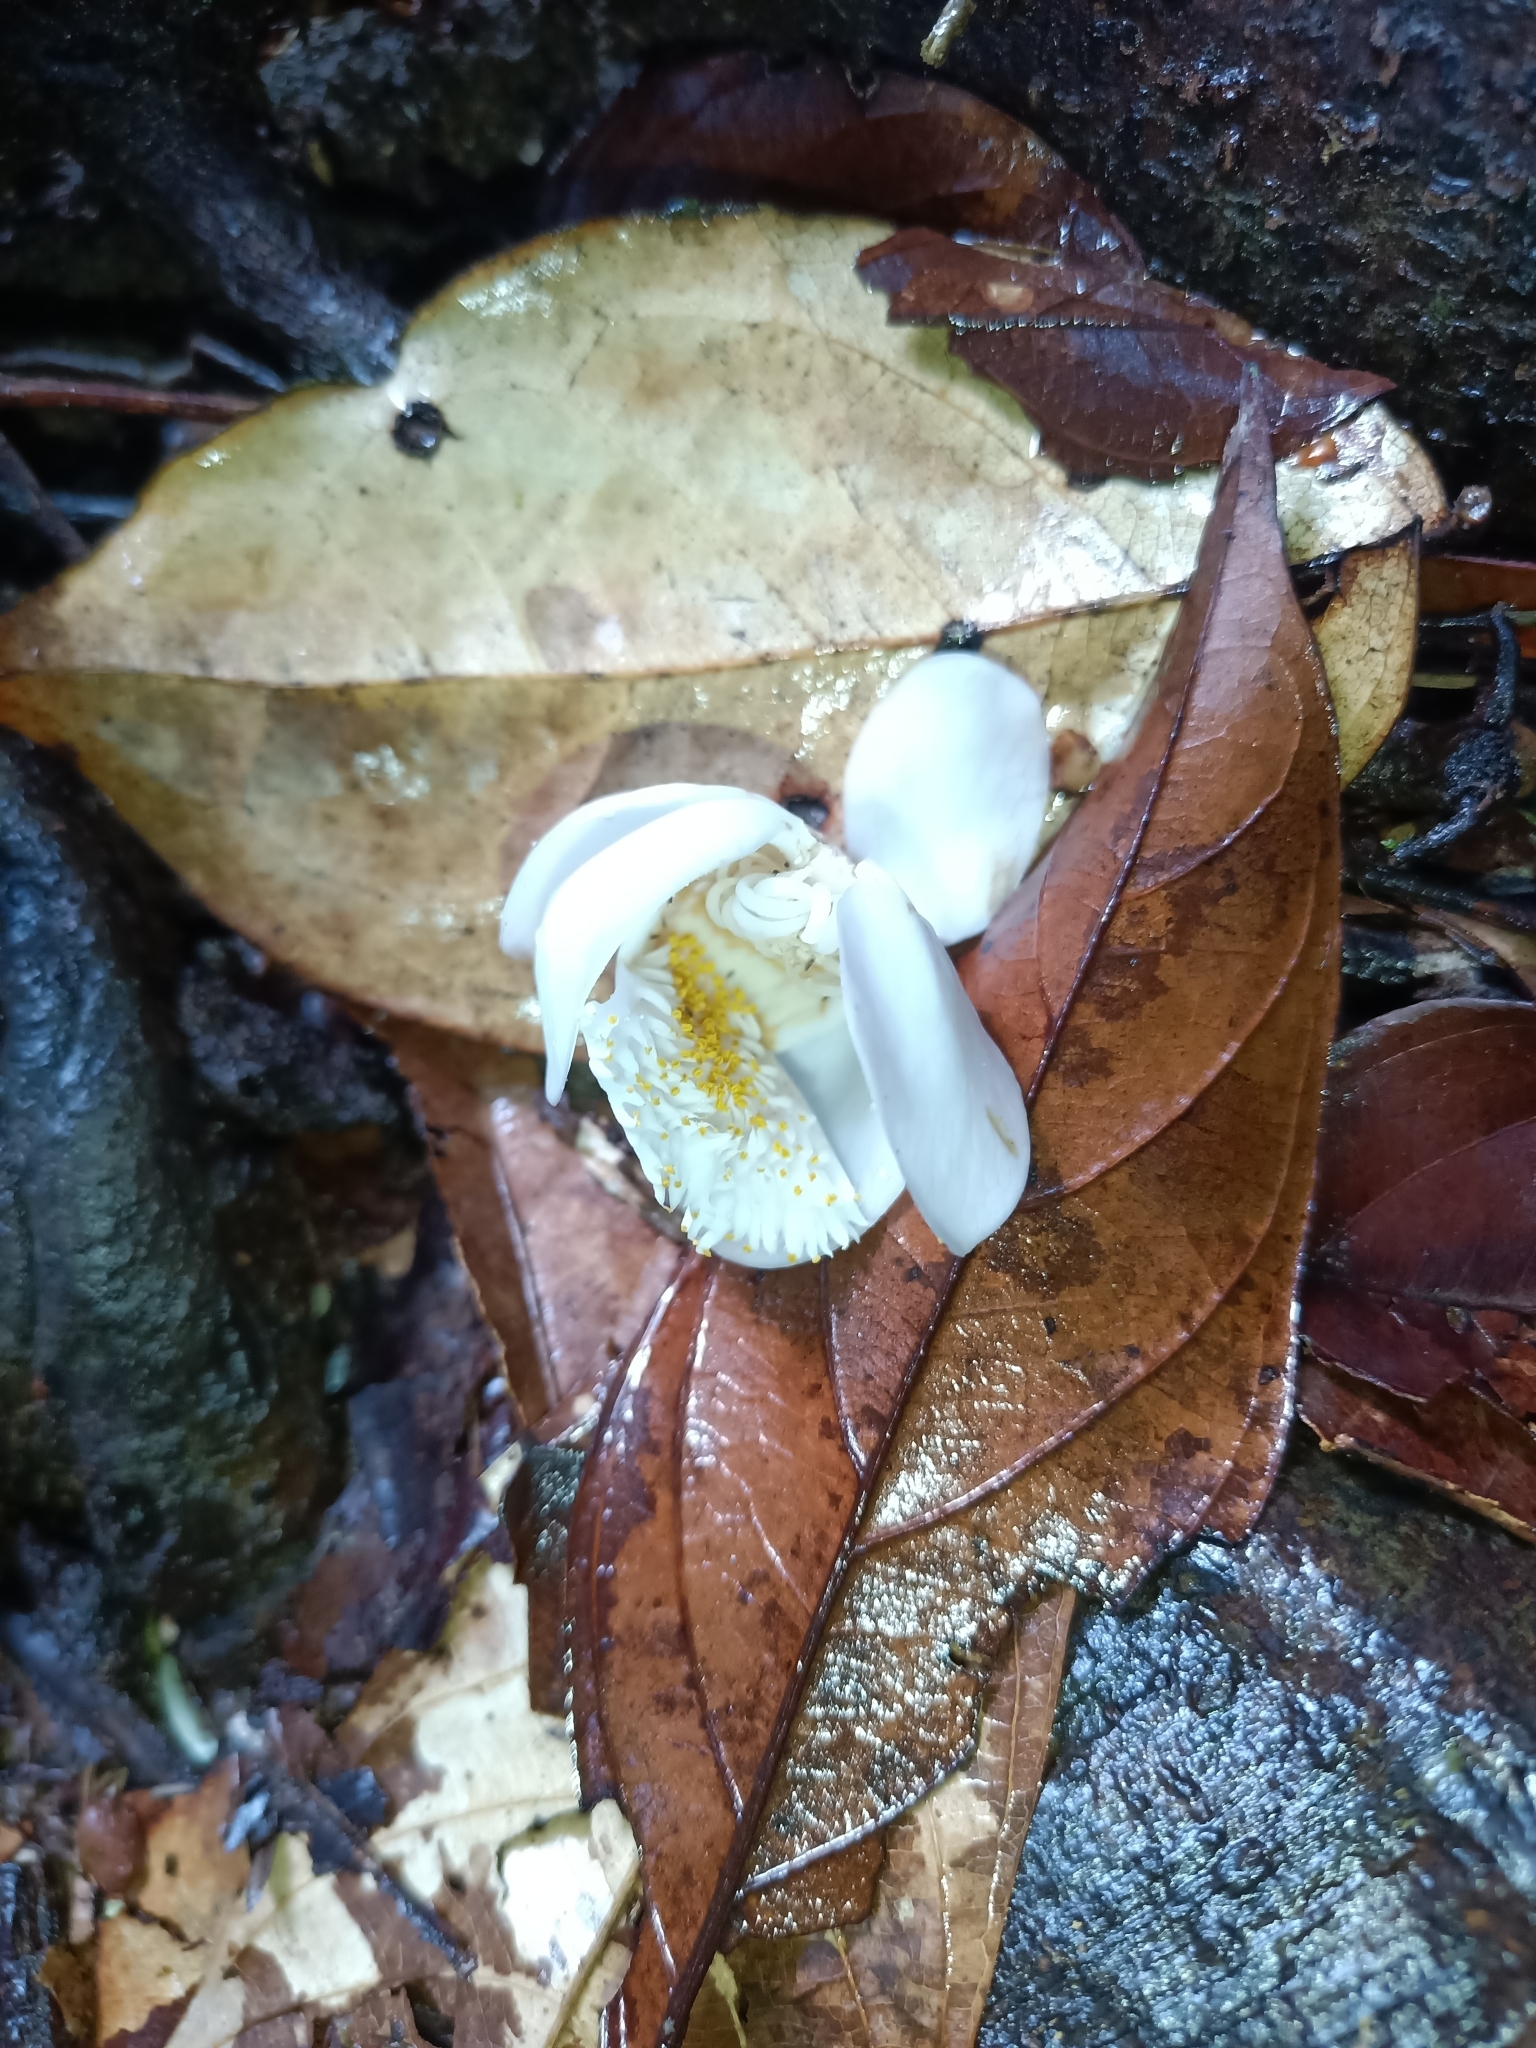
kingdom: Plantae
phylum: Tracheophyta
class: Magnoliopsida
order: Ericales
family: Lecythidaceae
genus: Lecythis
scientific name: Lecythis persistens
